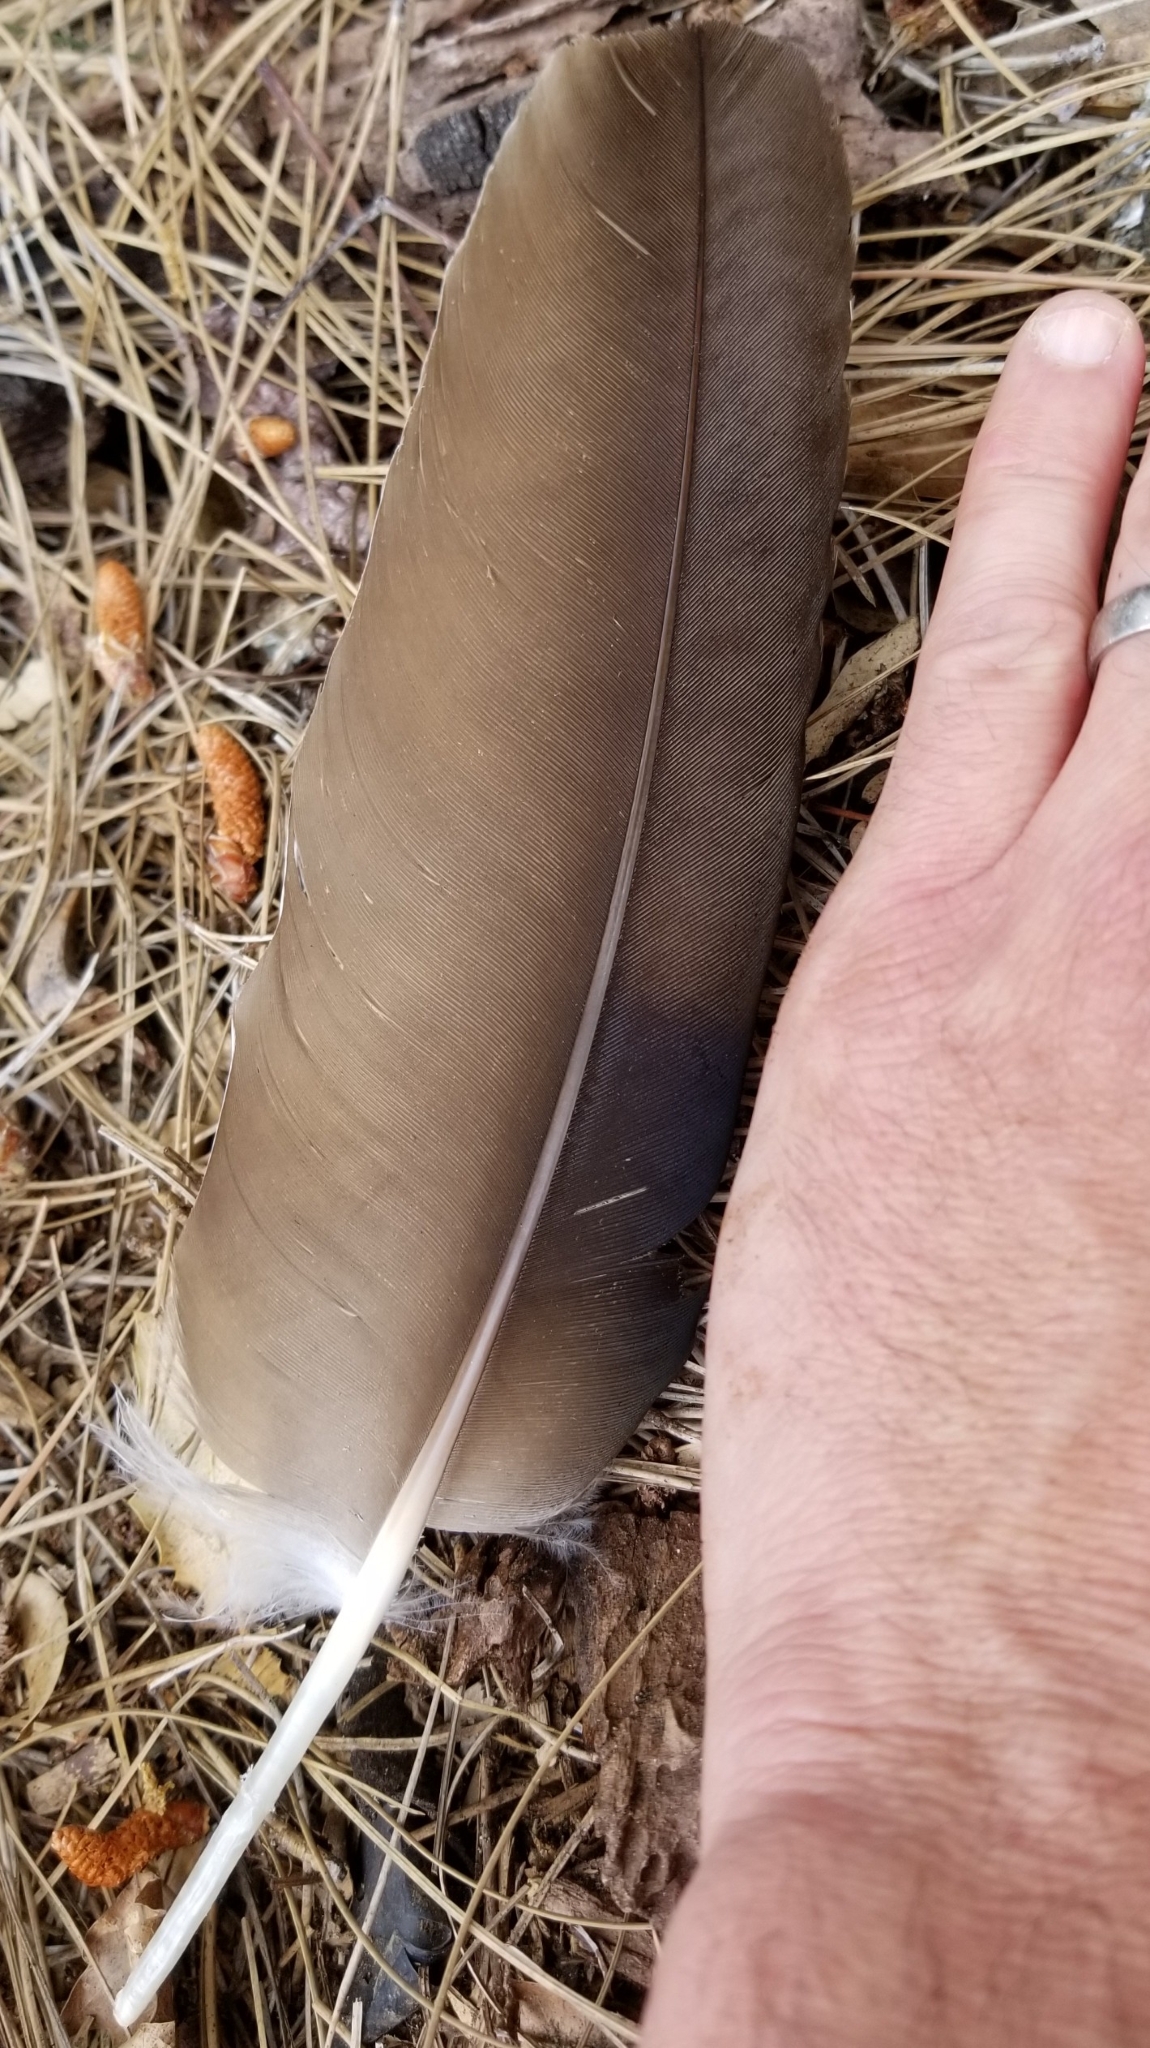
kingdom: Animalia
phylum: Chordata
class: Aves
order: Accipitriformes
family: Cathartidae
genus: Cathartes
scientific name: Cathartes aura
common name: Turkey vulture
